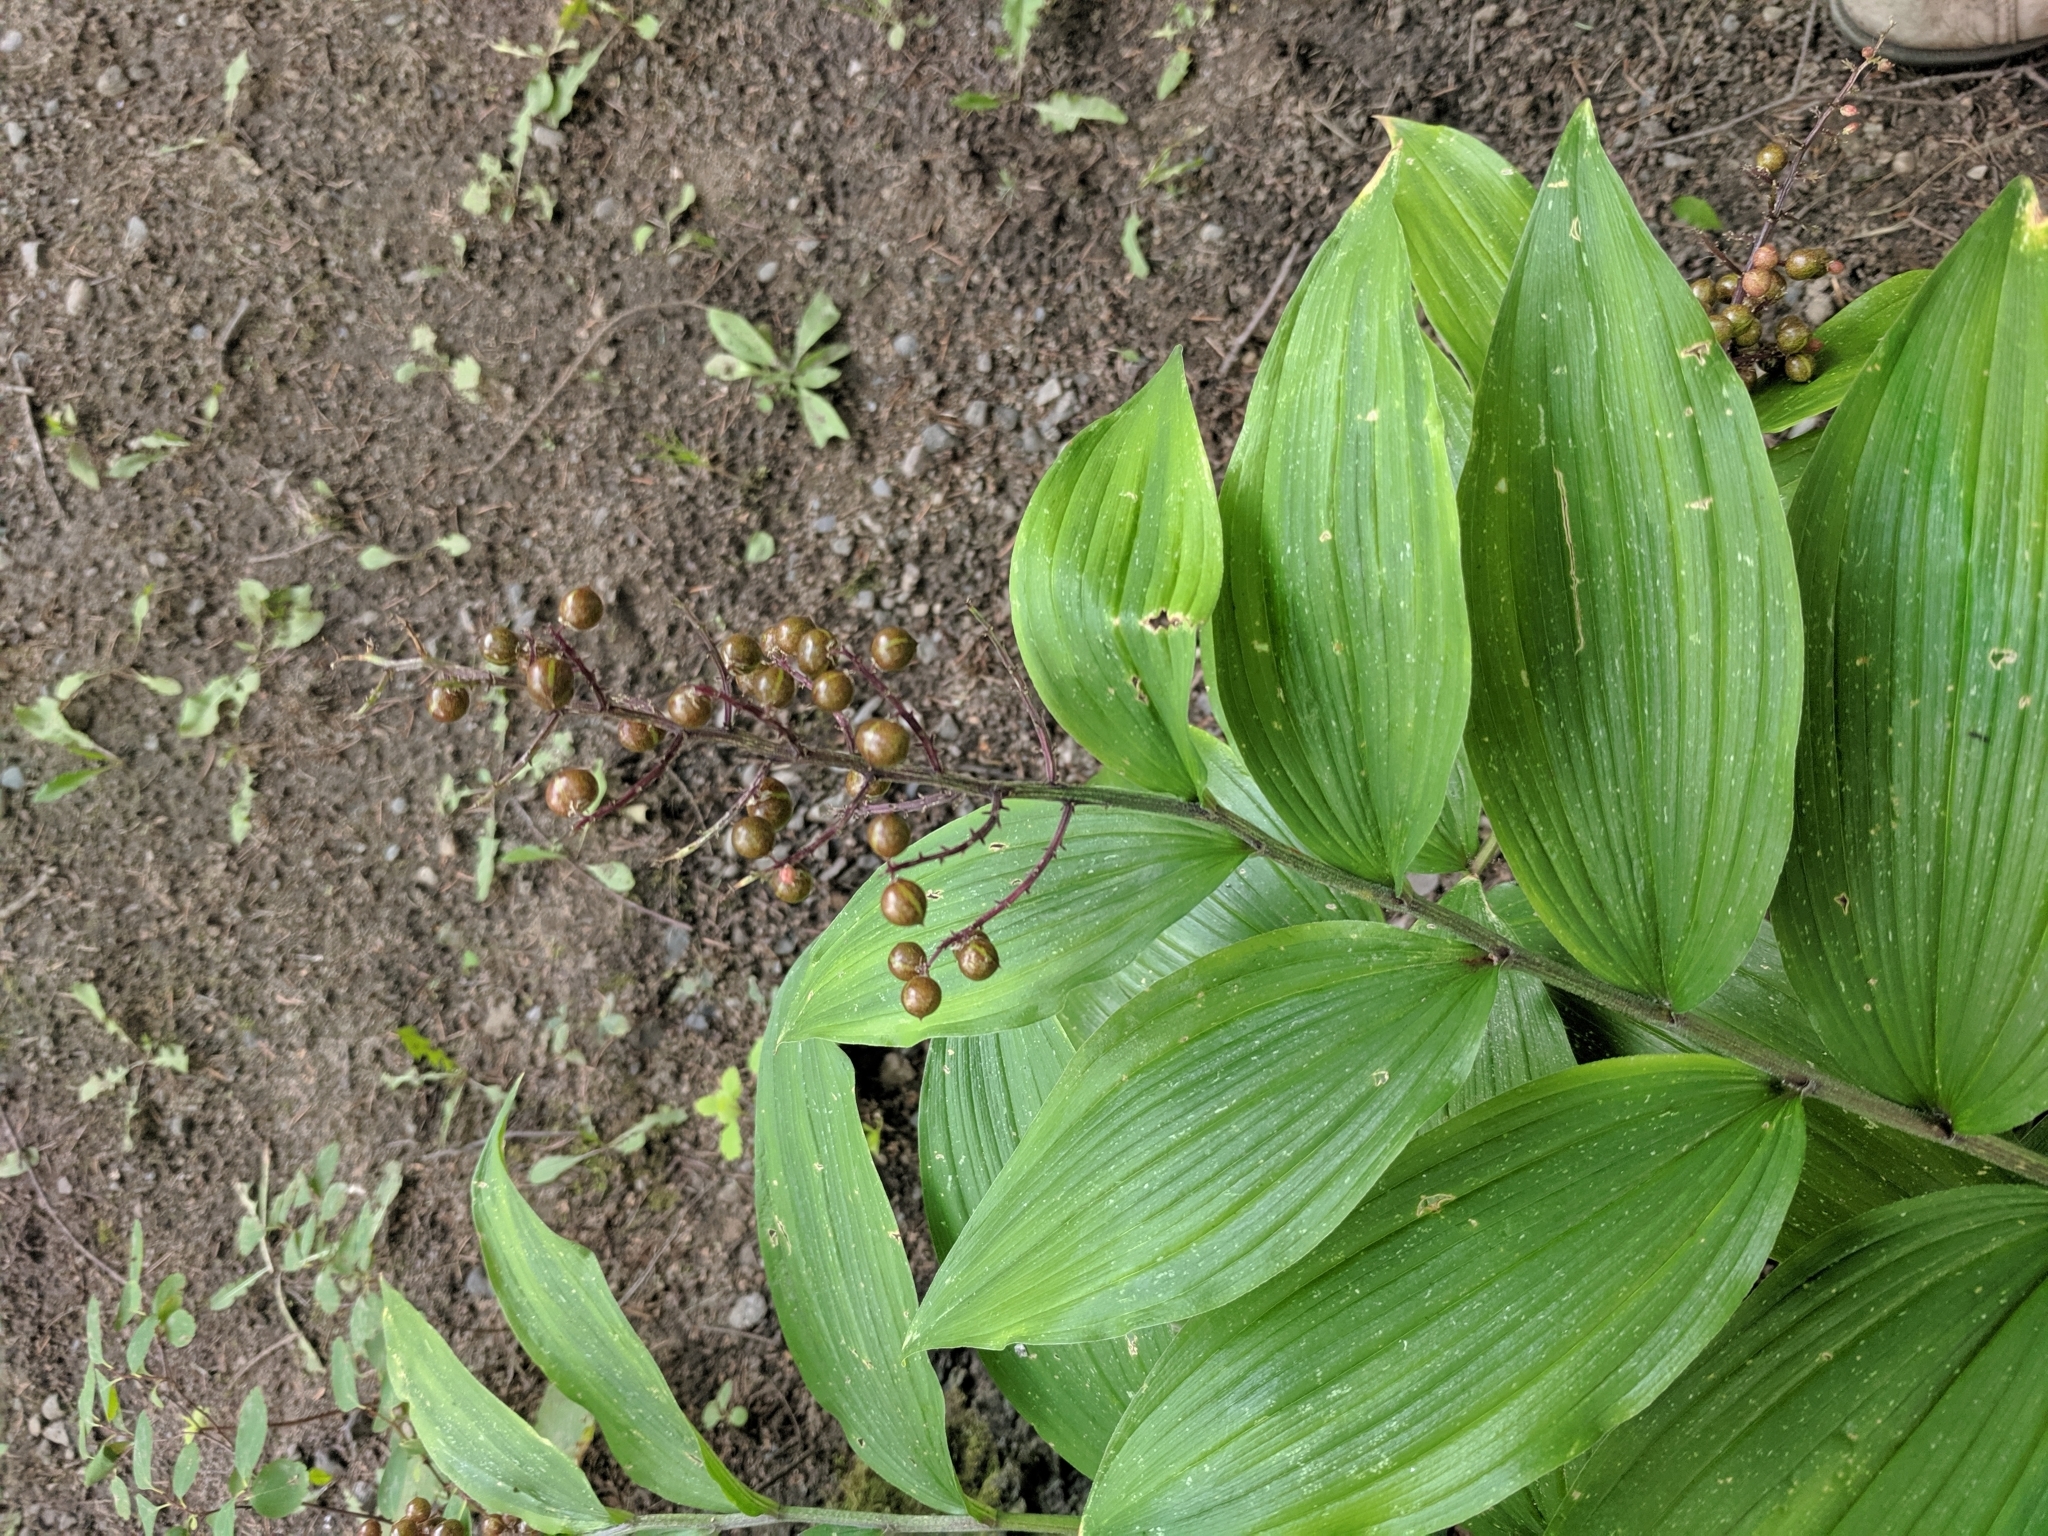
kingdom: Plantae
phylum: Tracheophyta
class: Liliopsida
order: Asparagales
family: Asparagaceae
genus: Maianthemum
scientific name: Maianthemum racemosum
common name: False spikenard
